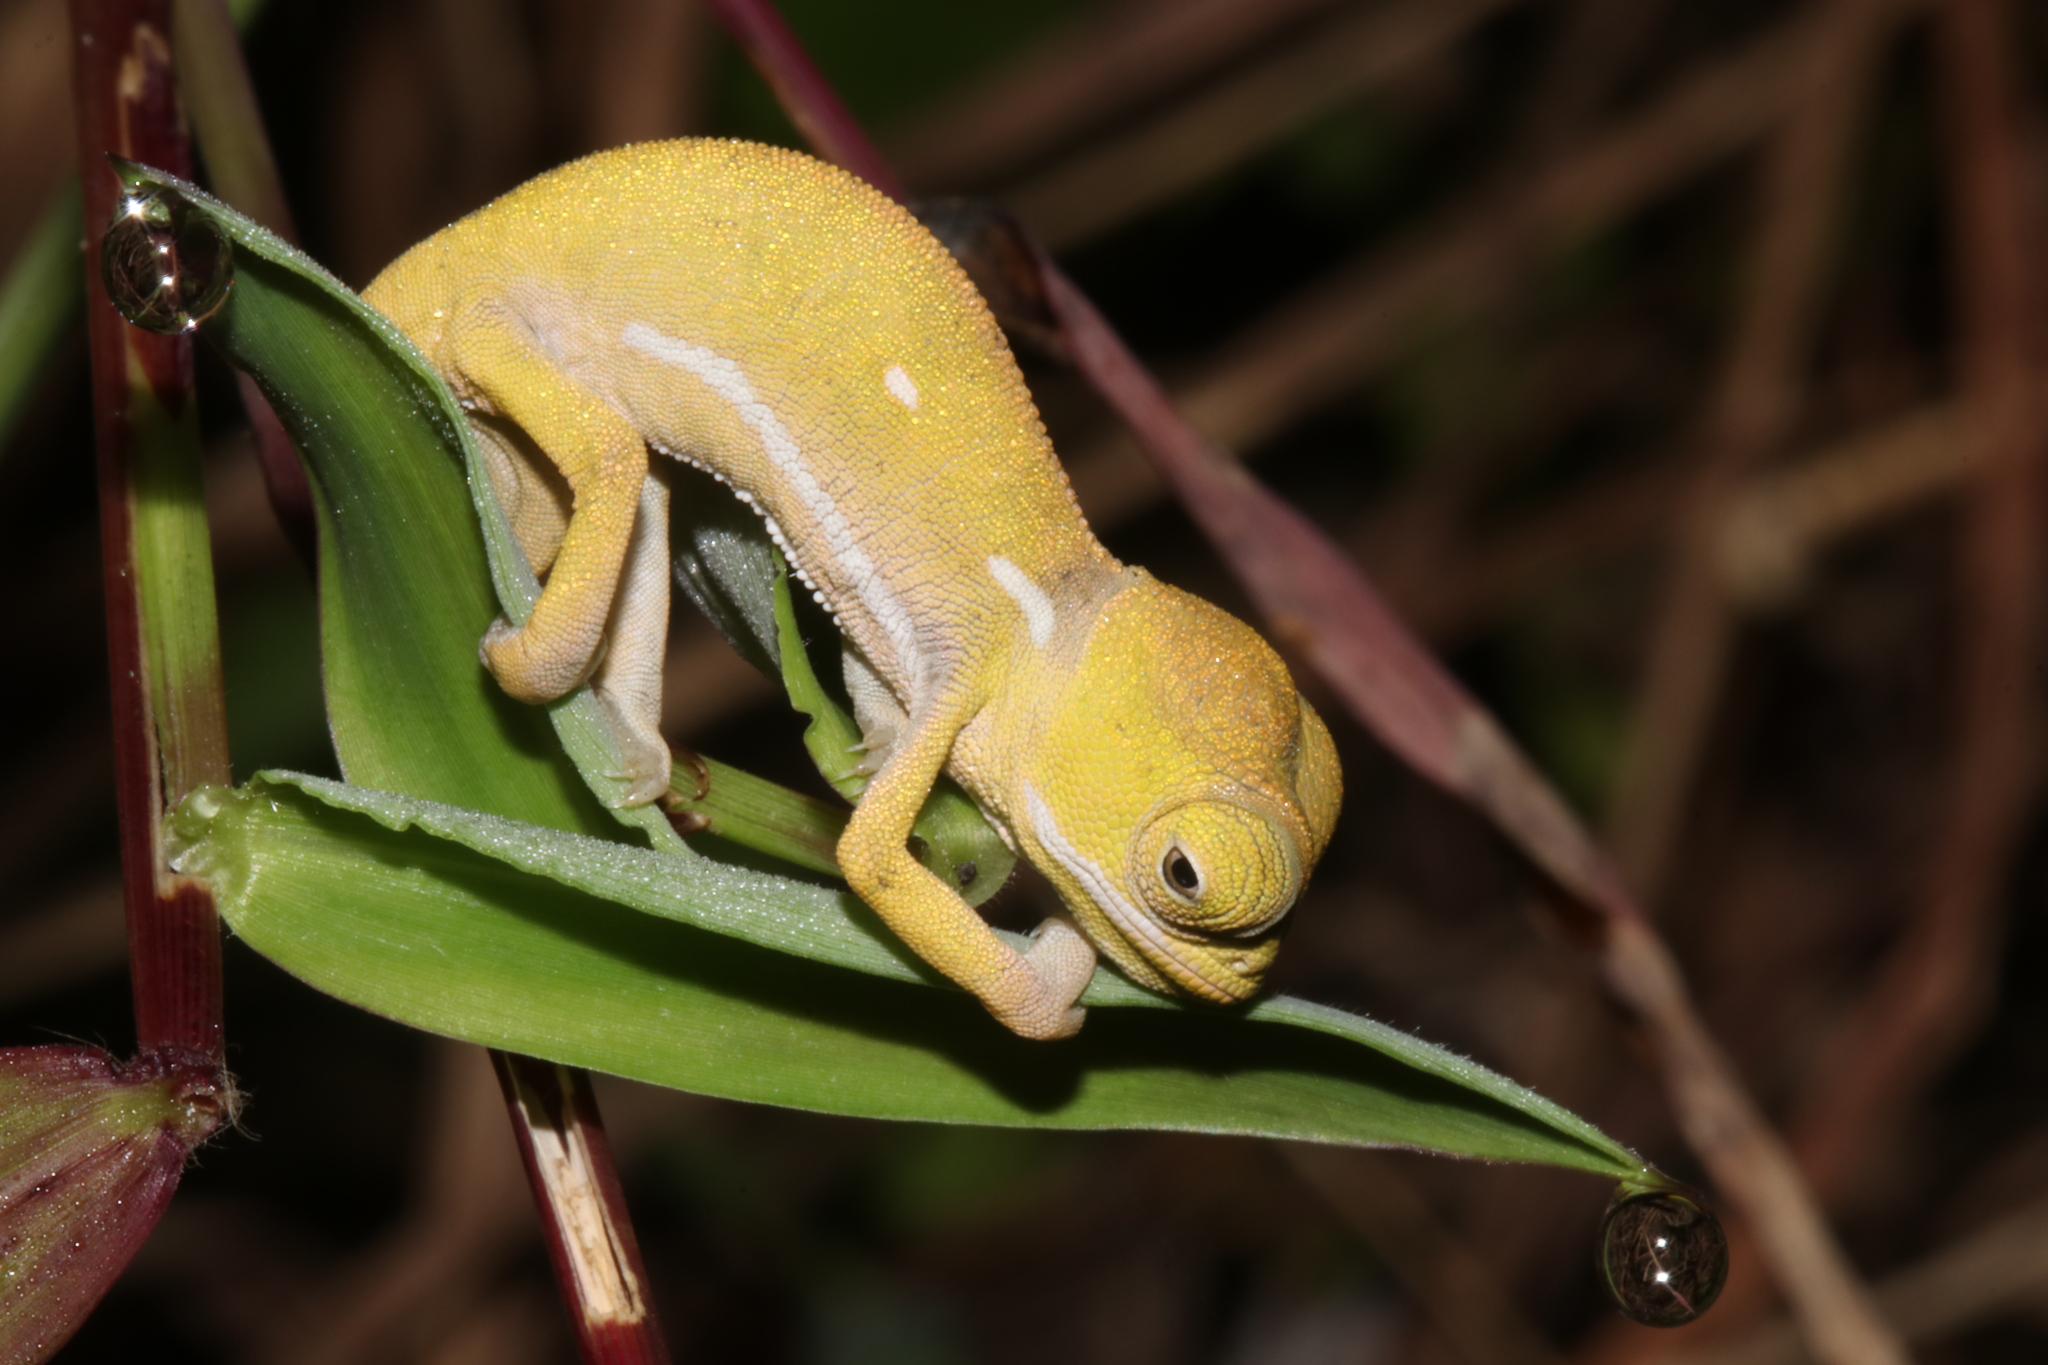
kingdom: Animalia
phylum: Chordata
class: Squamata
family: Chamaeleonidae
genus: Chamaeleo
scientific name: Chamaeleo dilepis
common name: Flapneck chameleon
